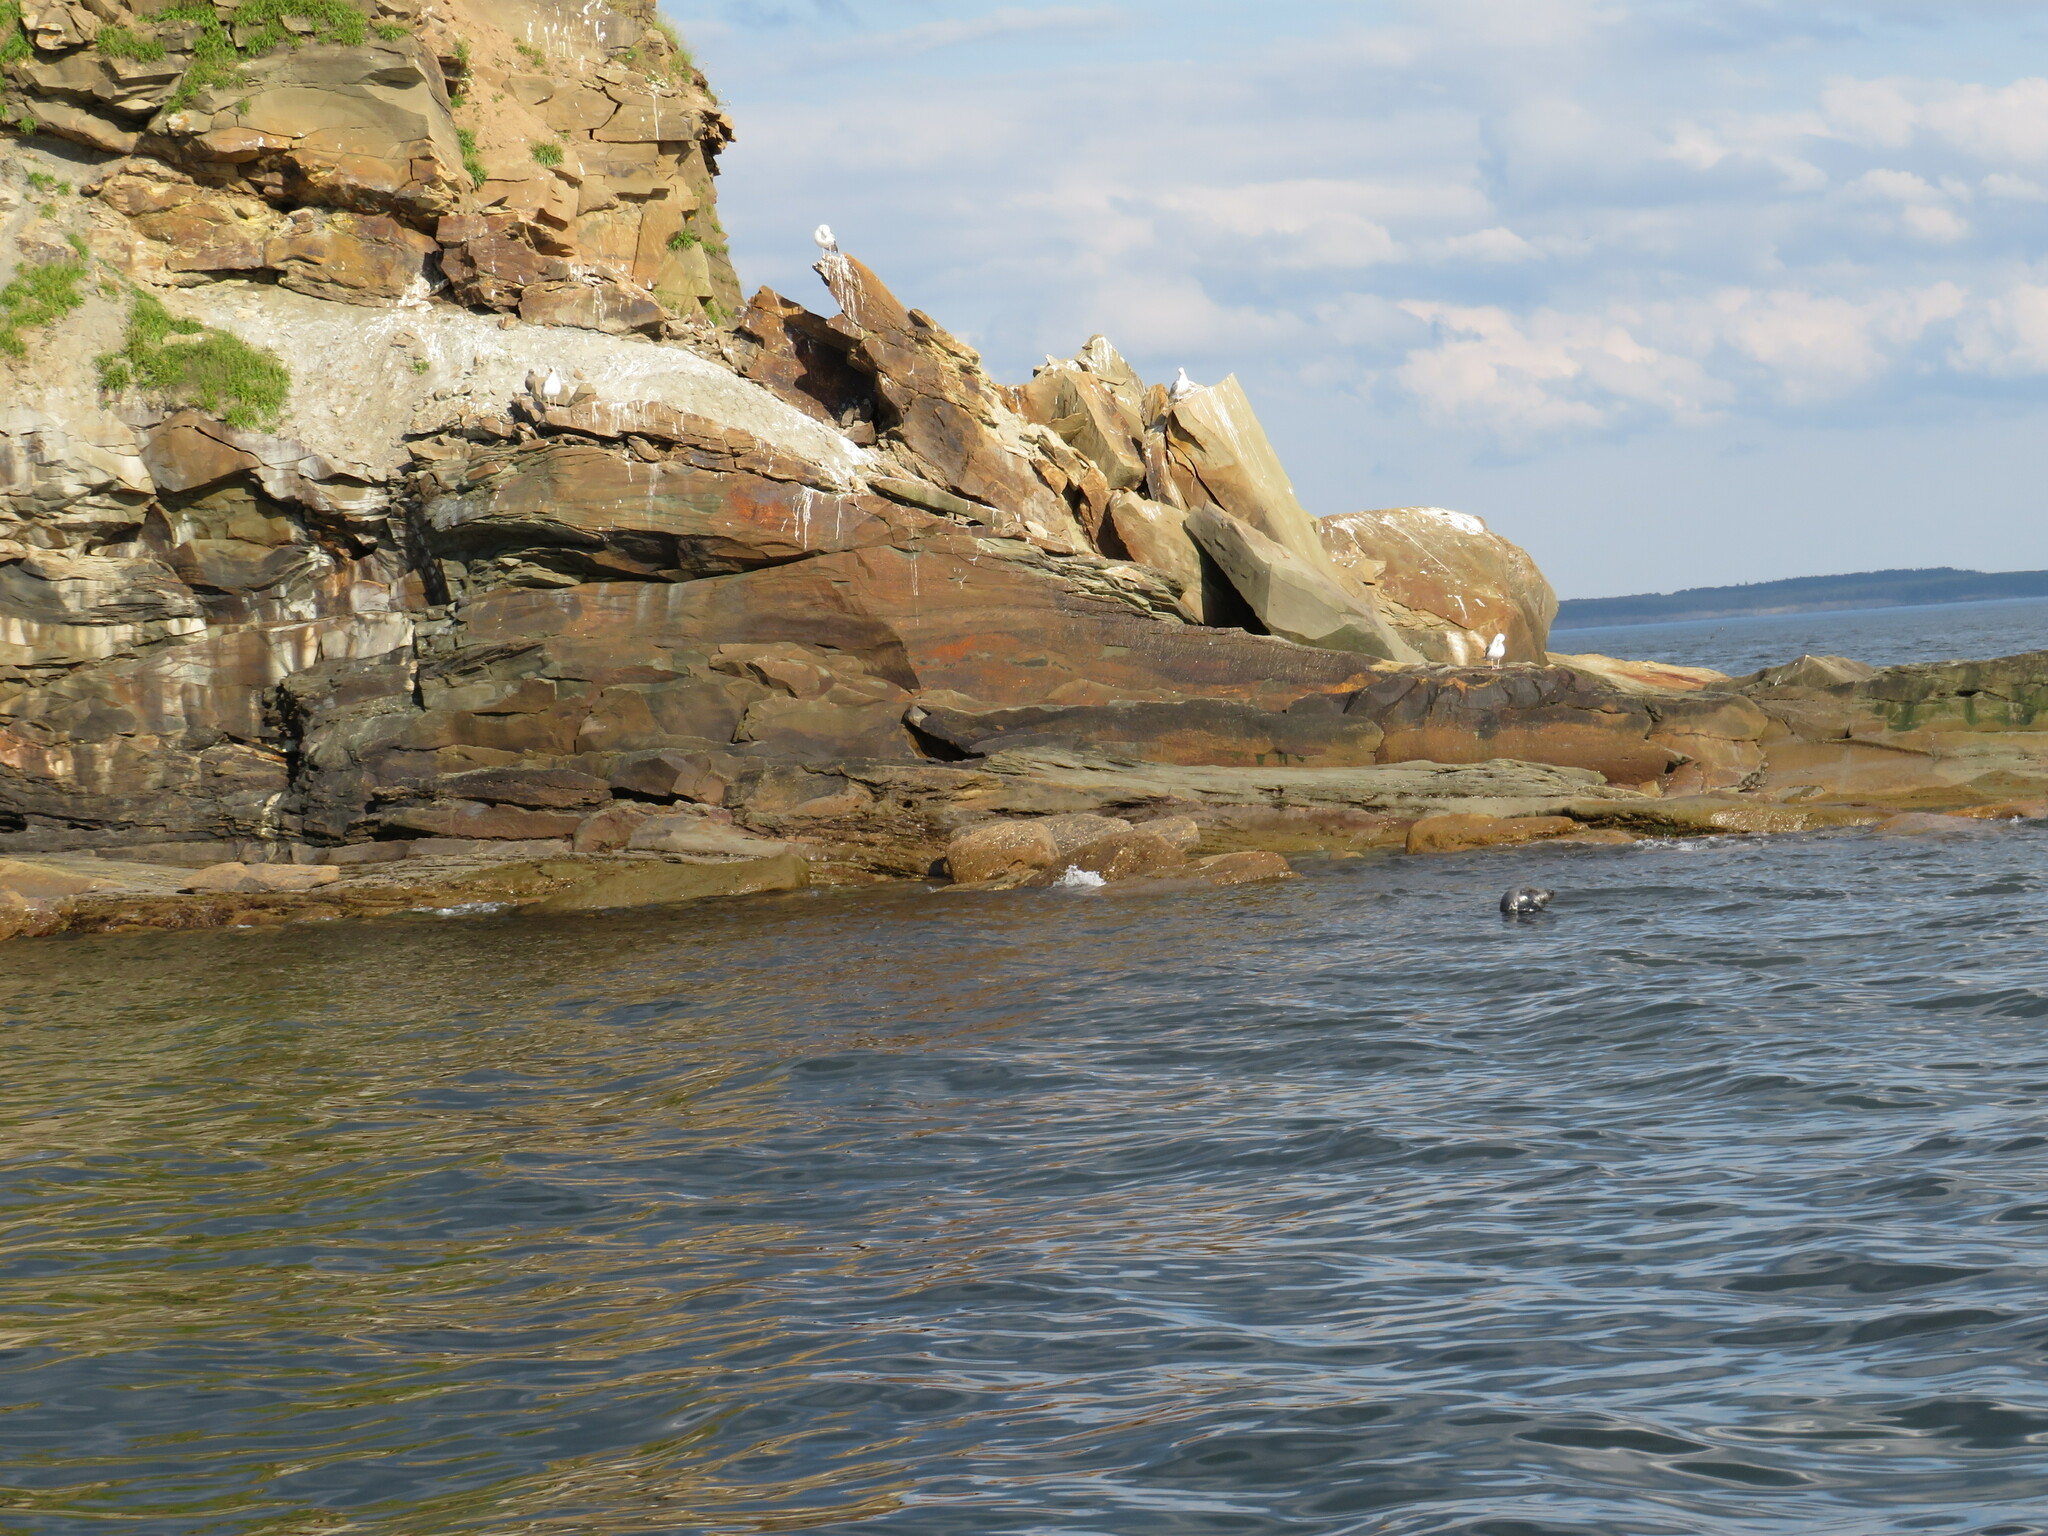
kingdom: Animalia
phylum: Chordata
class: Mammalia
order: Carnivora
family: Phocidae
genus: Halichoerus
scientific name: Halichoerus grypus
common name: Grey seal
